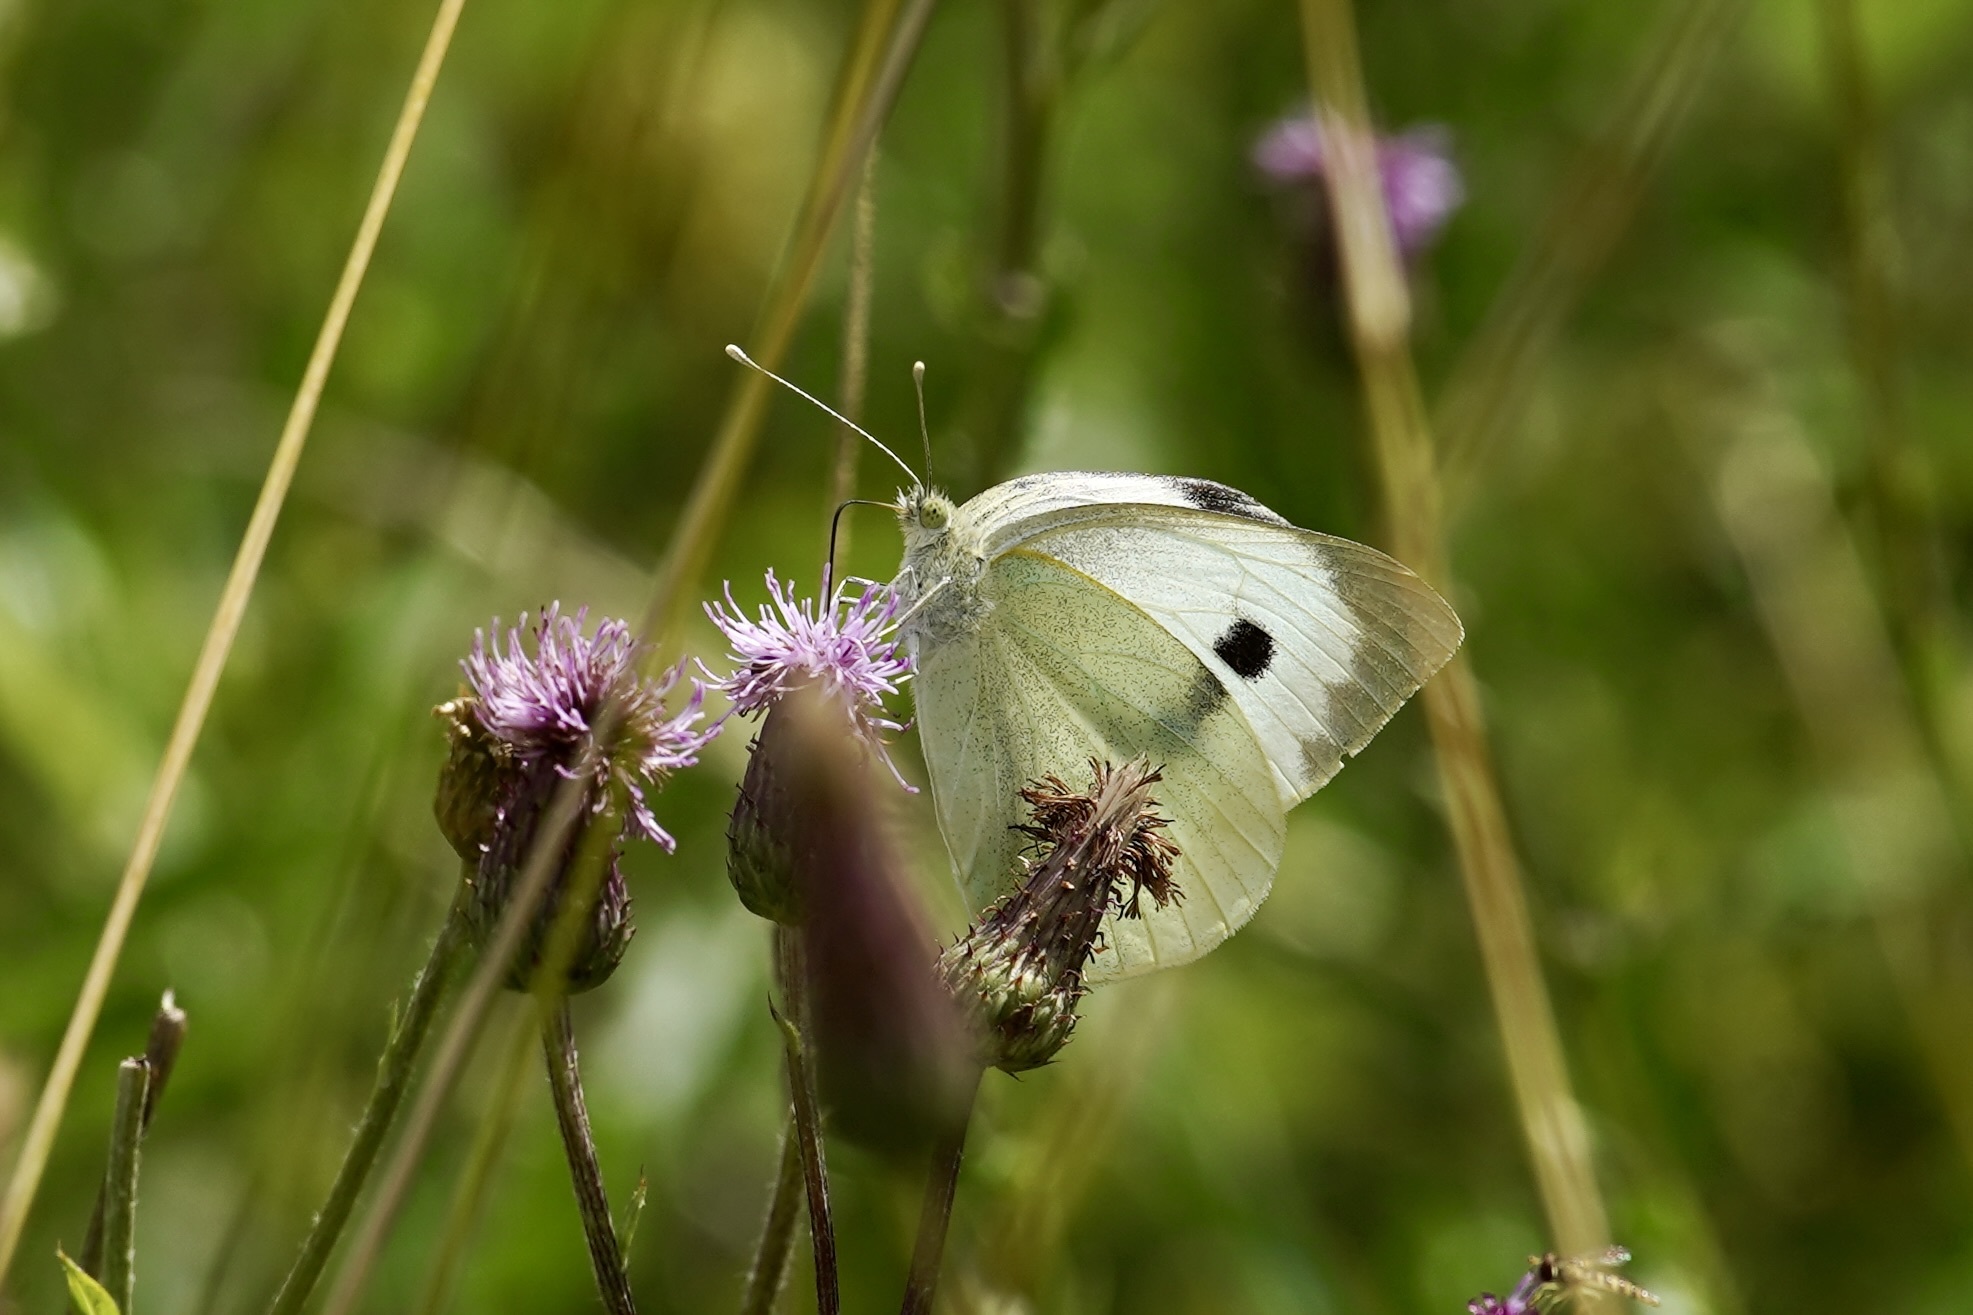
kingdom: Animalia
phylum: Arthropoda
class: Insecta
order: Lepidoptera
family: Pieridae
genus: Pieris
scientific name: Pieris brassicae
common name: Large white
